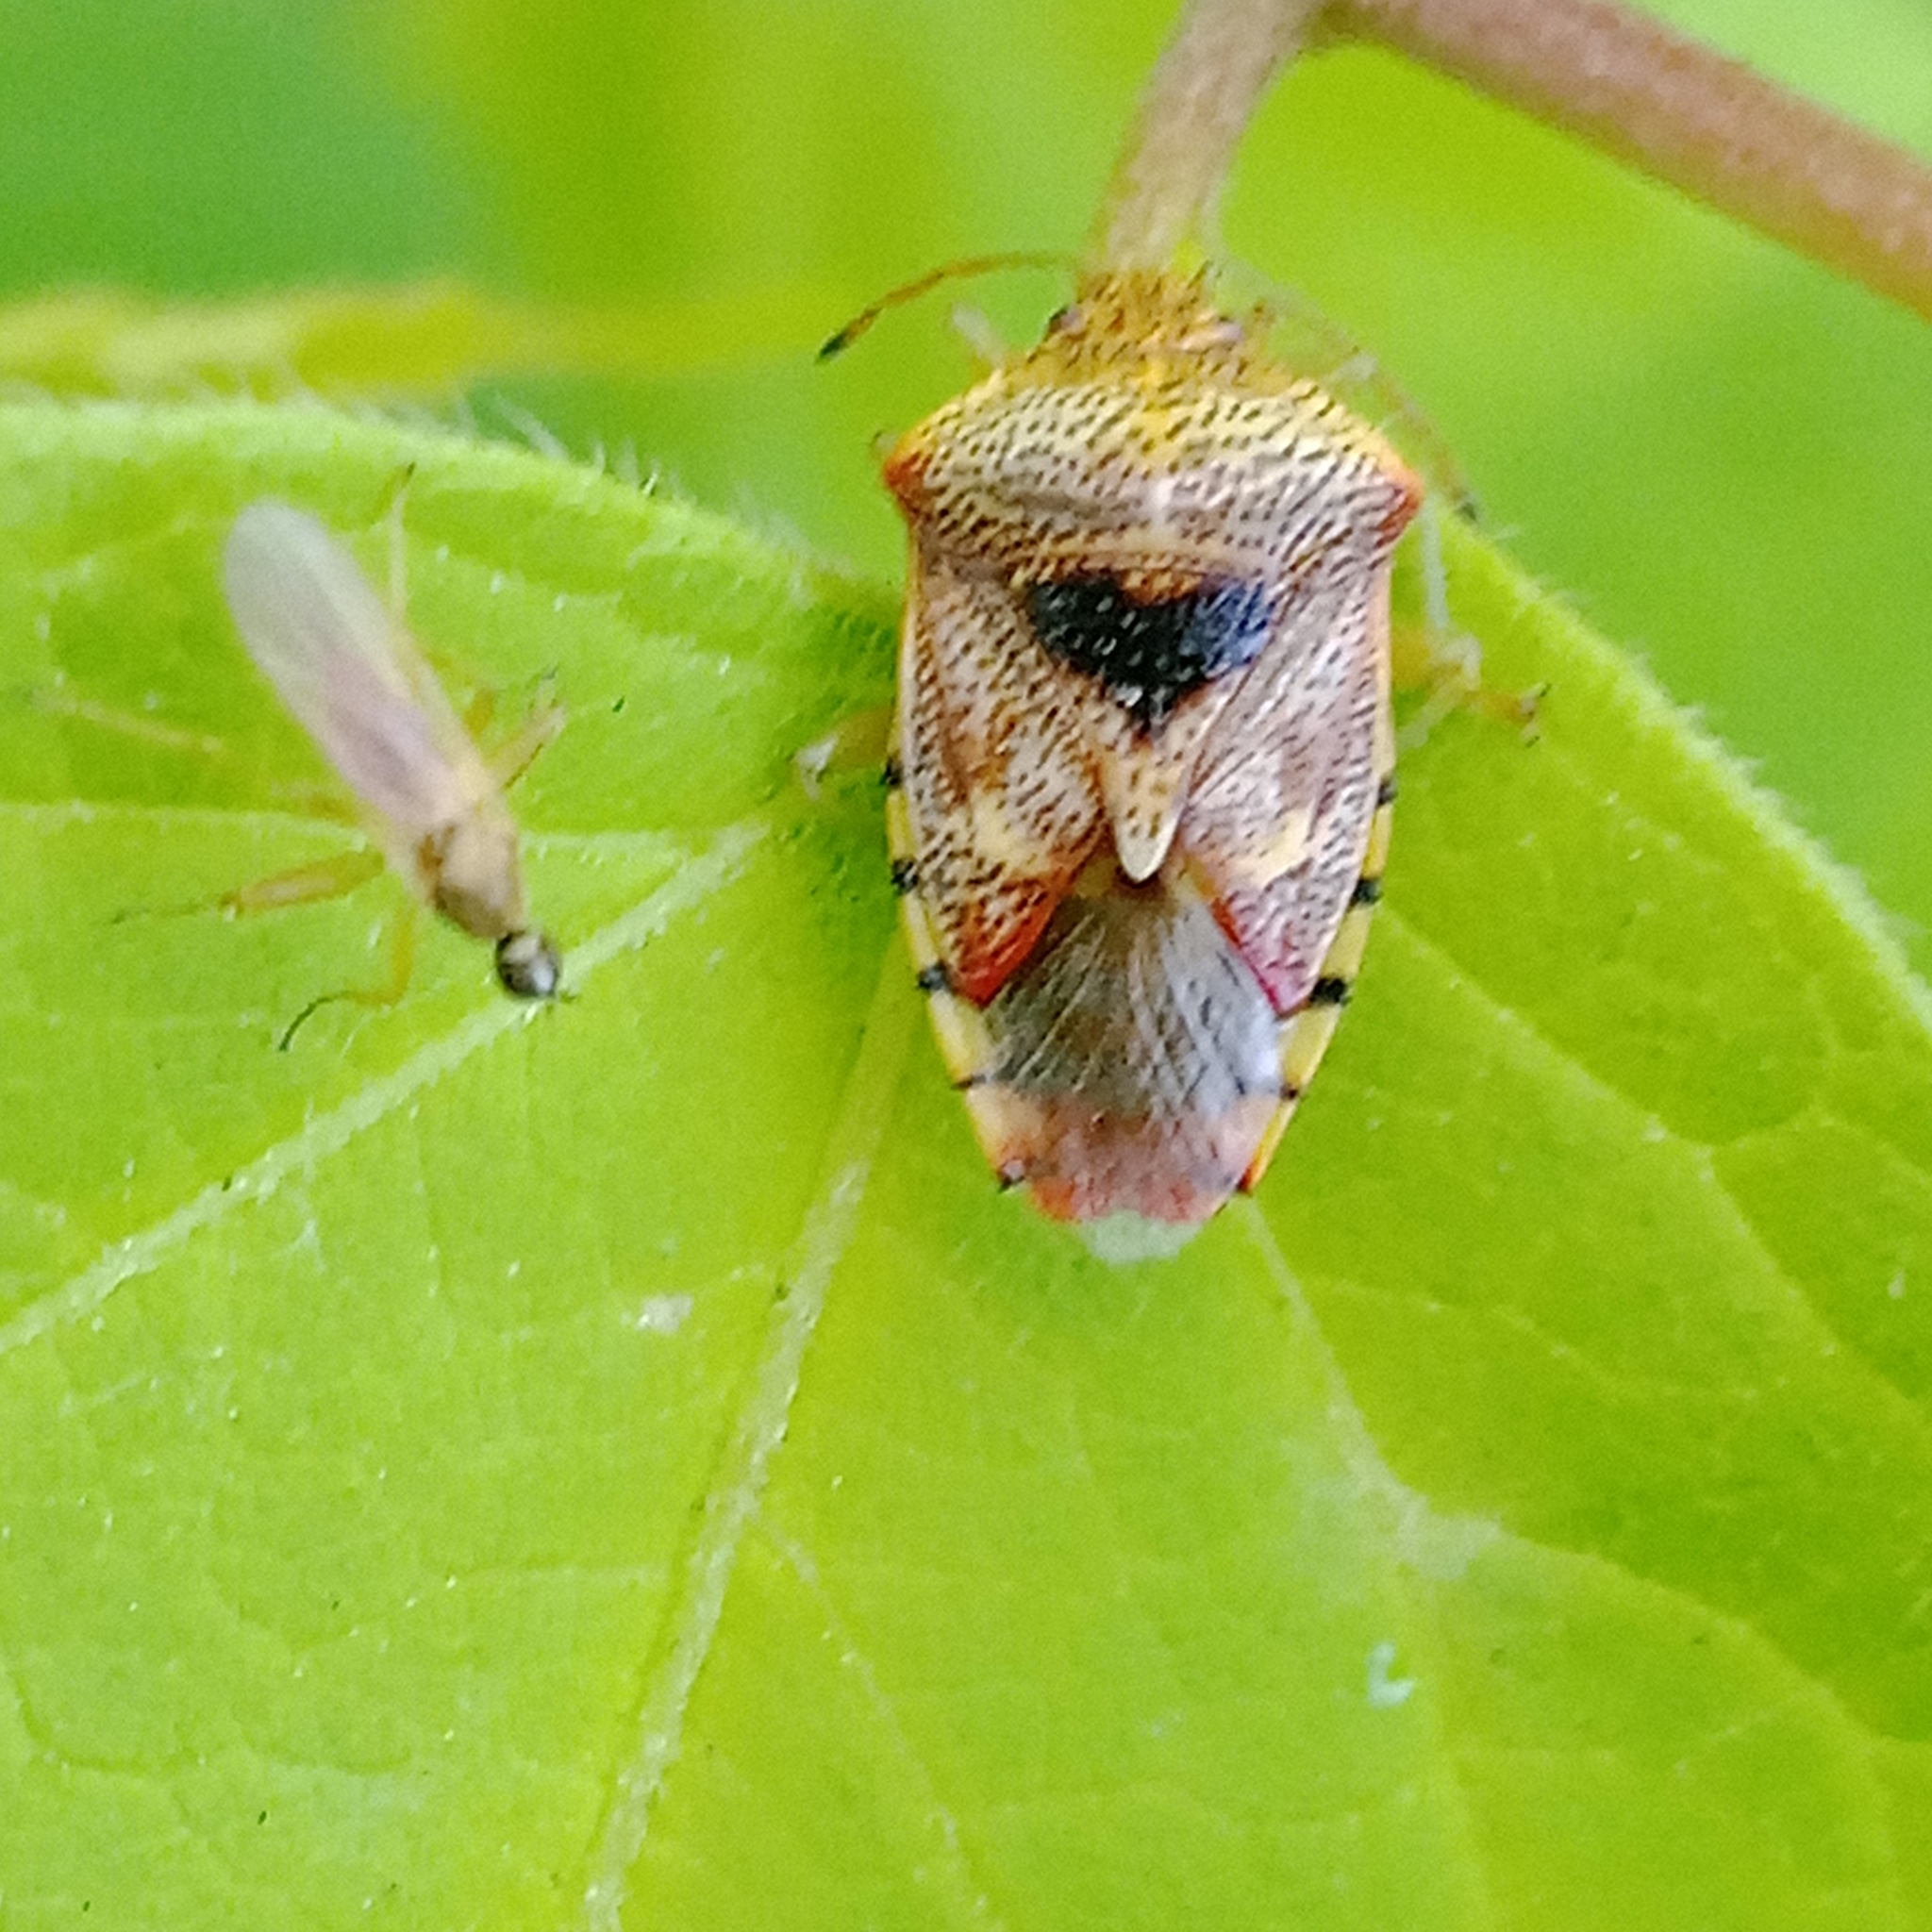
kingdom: Animalia
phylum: Arthropoda
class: Insecta
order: Hemiptera
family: Acanthosomatidae
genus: Elasmucha
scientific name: Elasmucha grisea
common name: Parent bug
